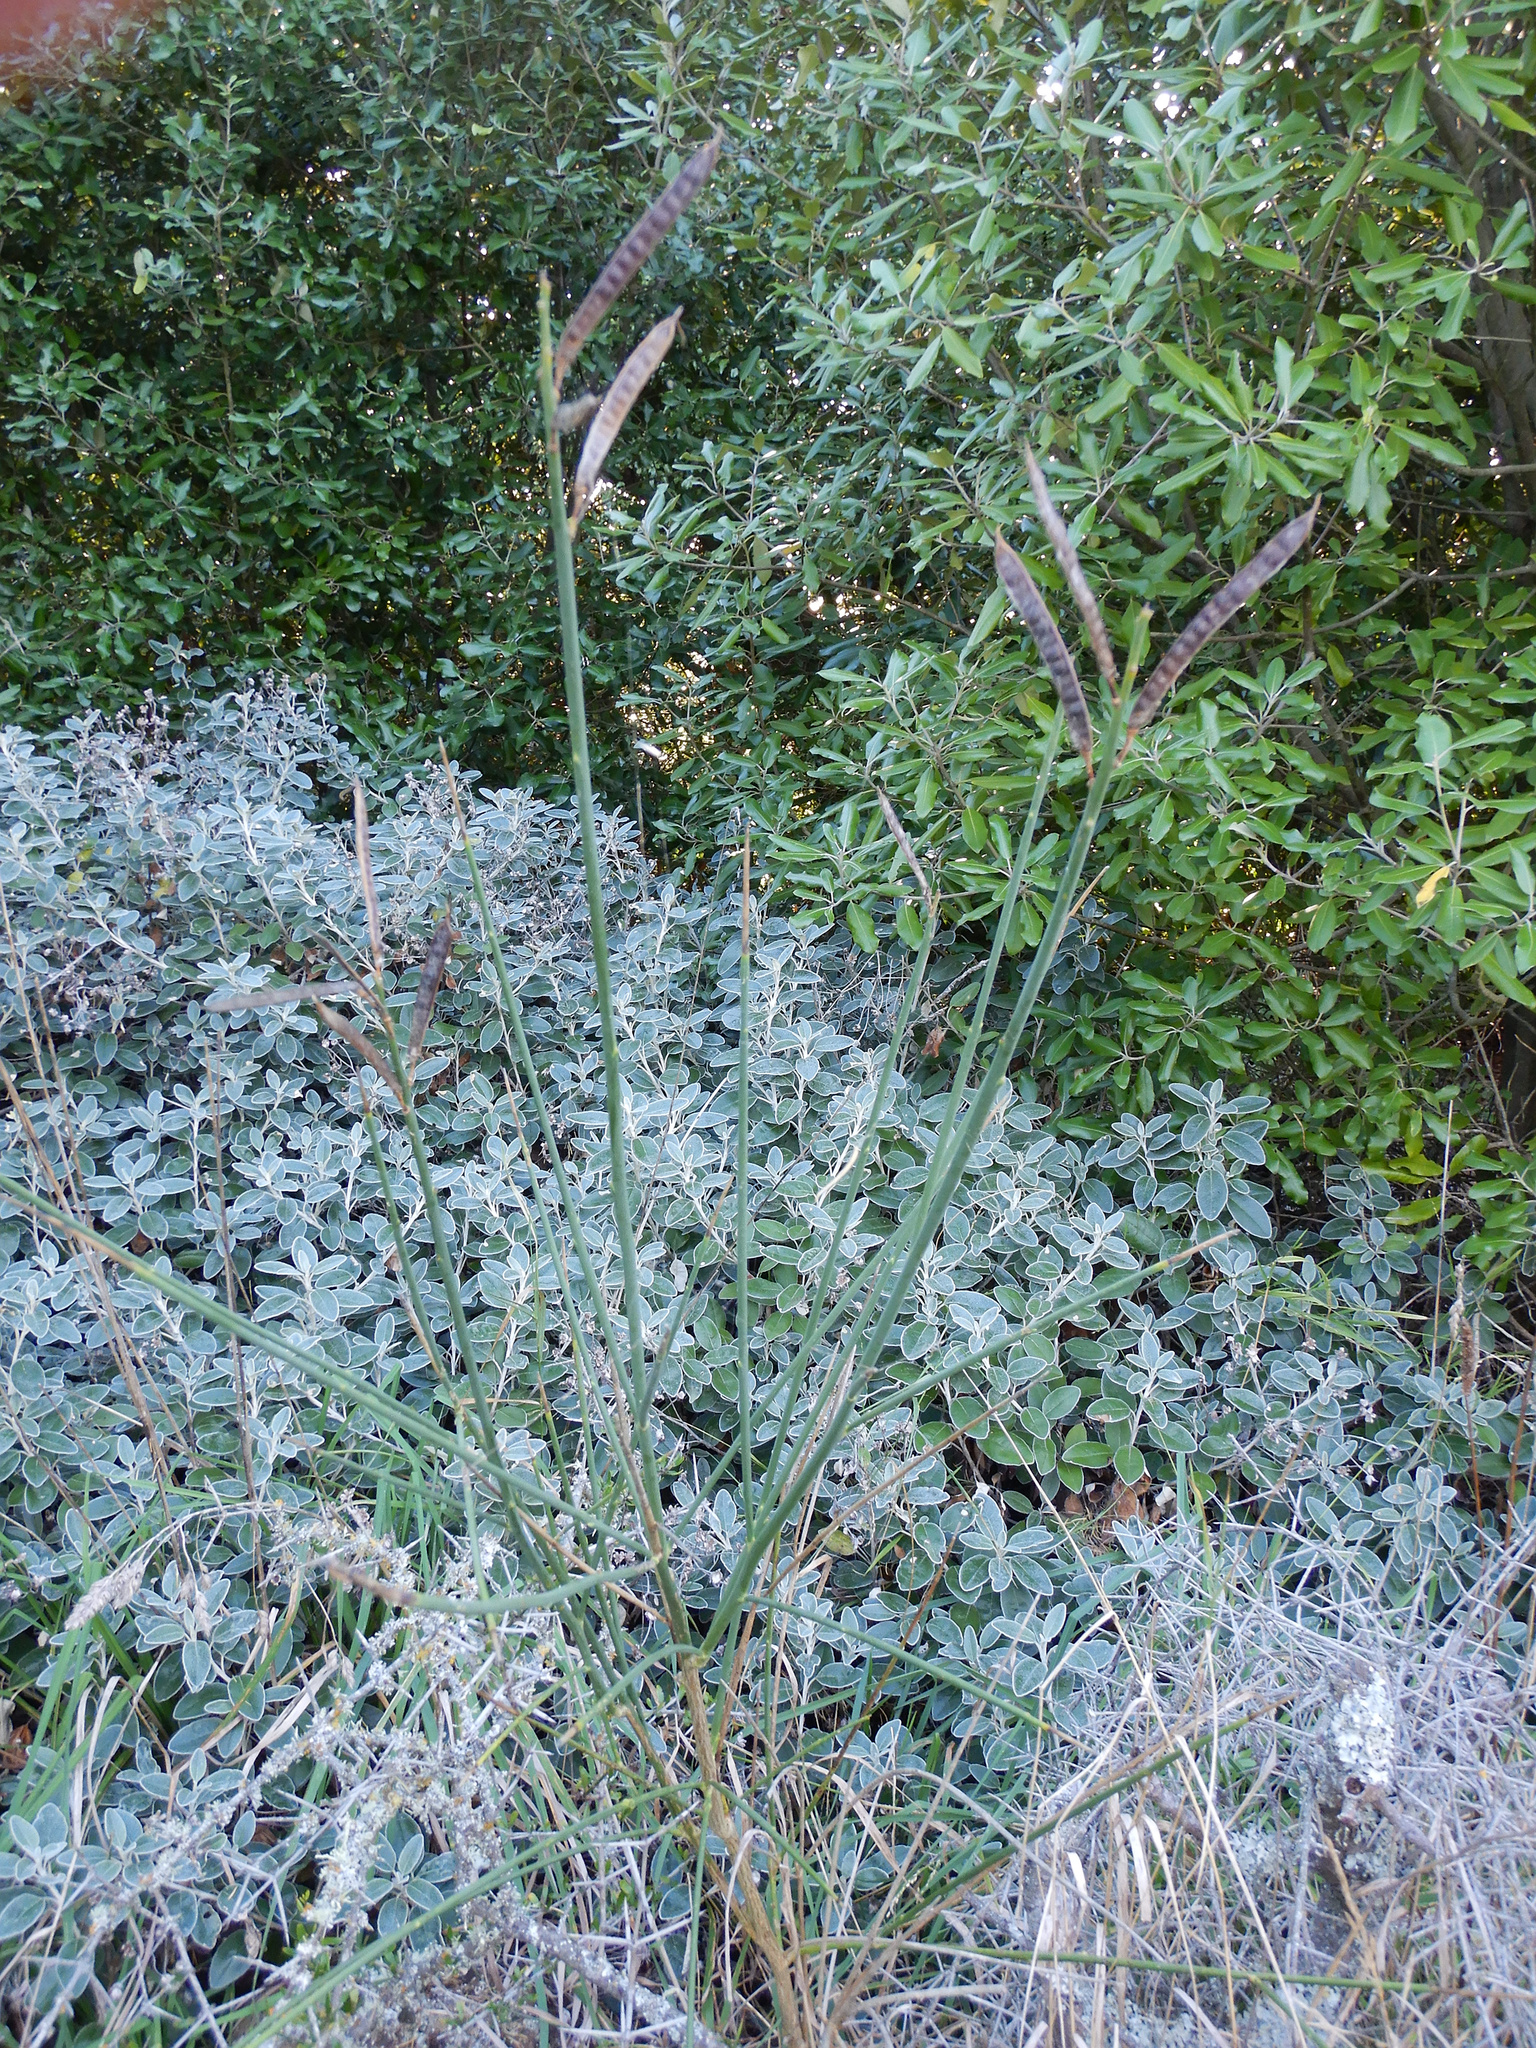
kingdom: Plantae
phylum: Tracheophyta
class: Magnoliopsida
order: Fabales
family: Fabaceae
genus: Spartium
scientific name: Spartium junceum
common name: Spanish broom
